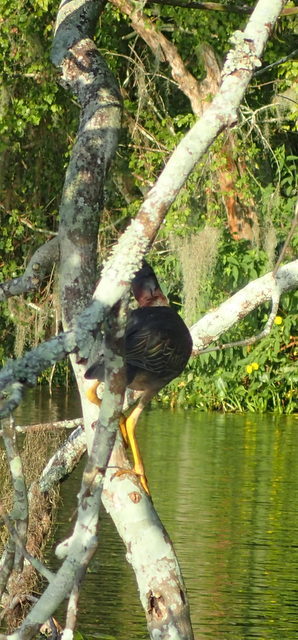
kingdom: Animalia
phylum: Chordata
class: Aves
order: Pelecaniformes
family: Ardeidae
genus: Butorides
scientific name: Butorides virescens
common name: Green heron
